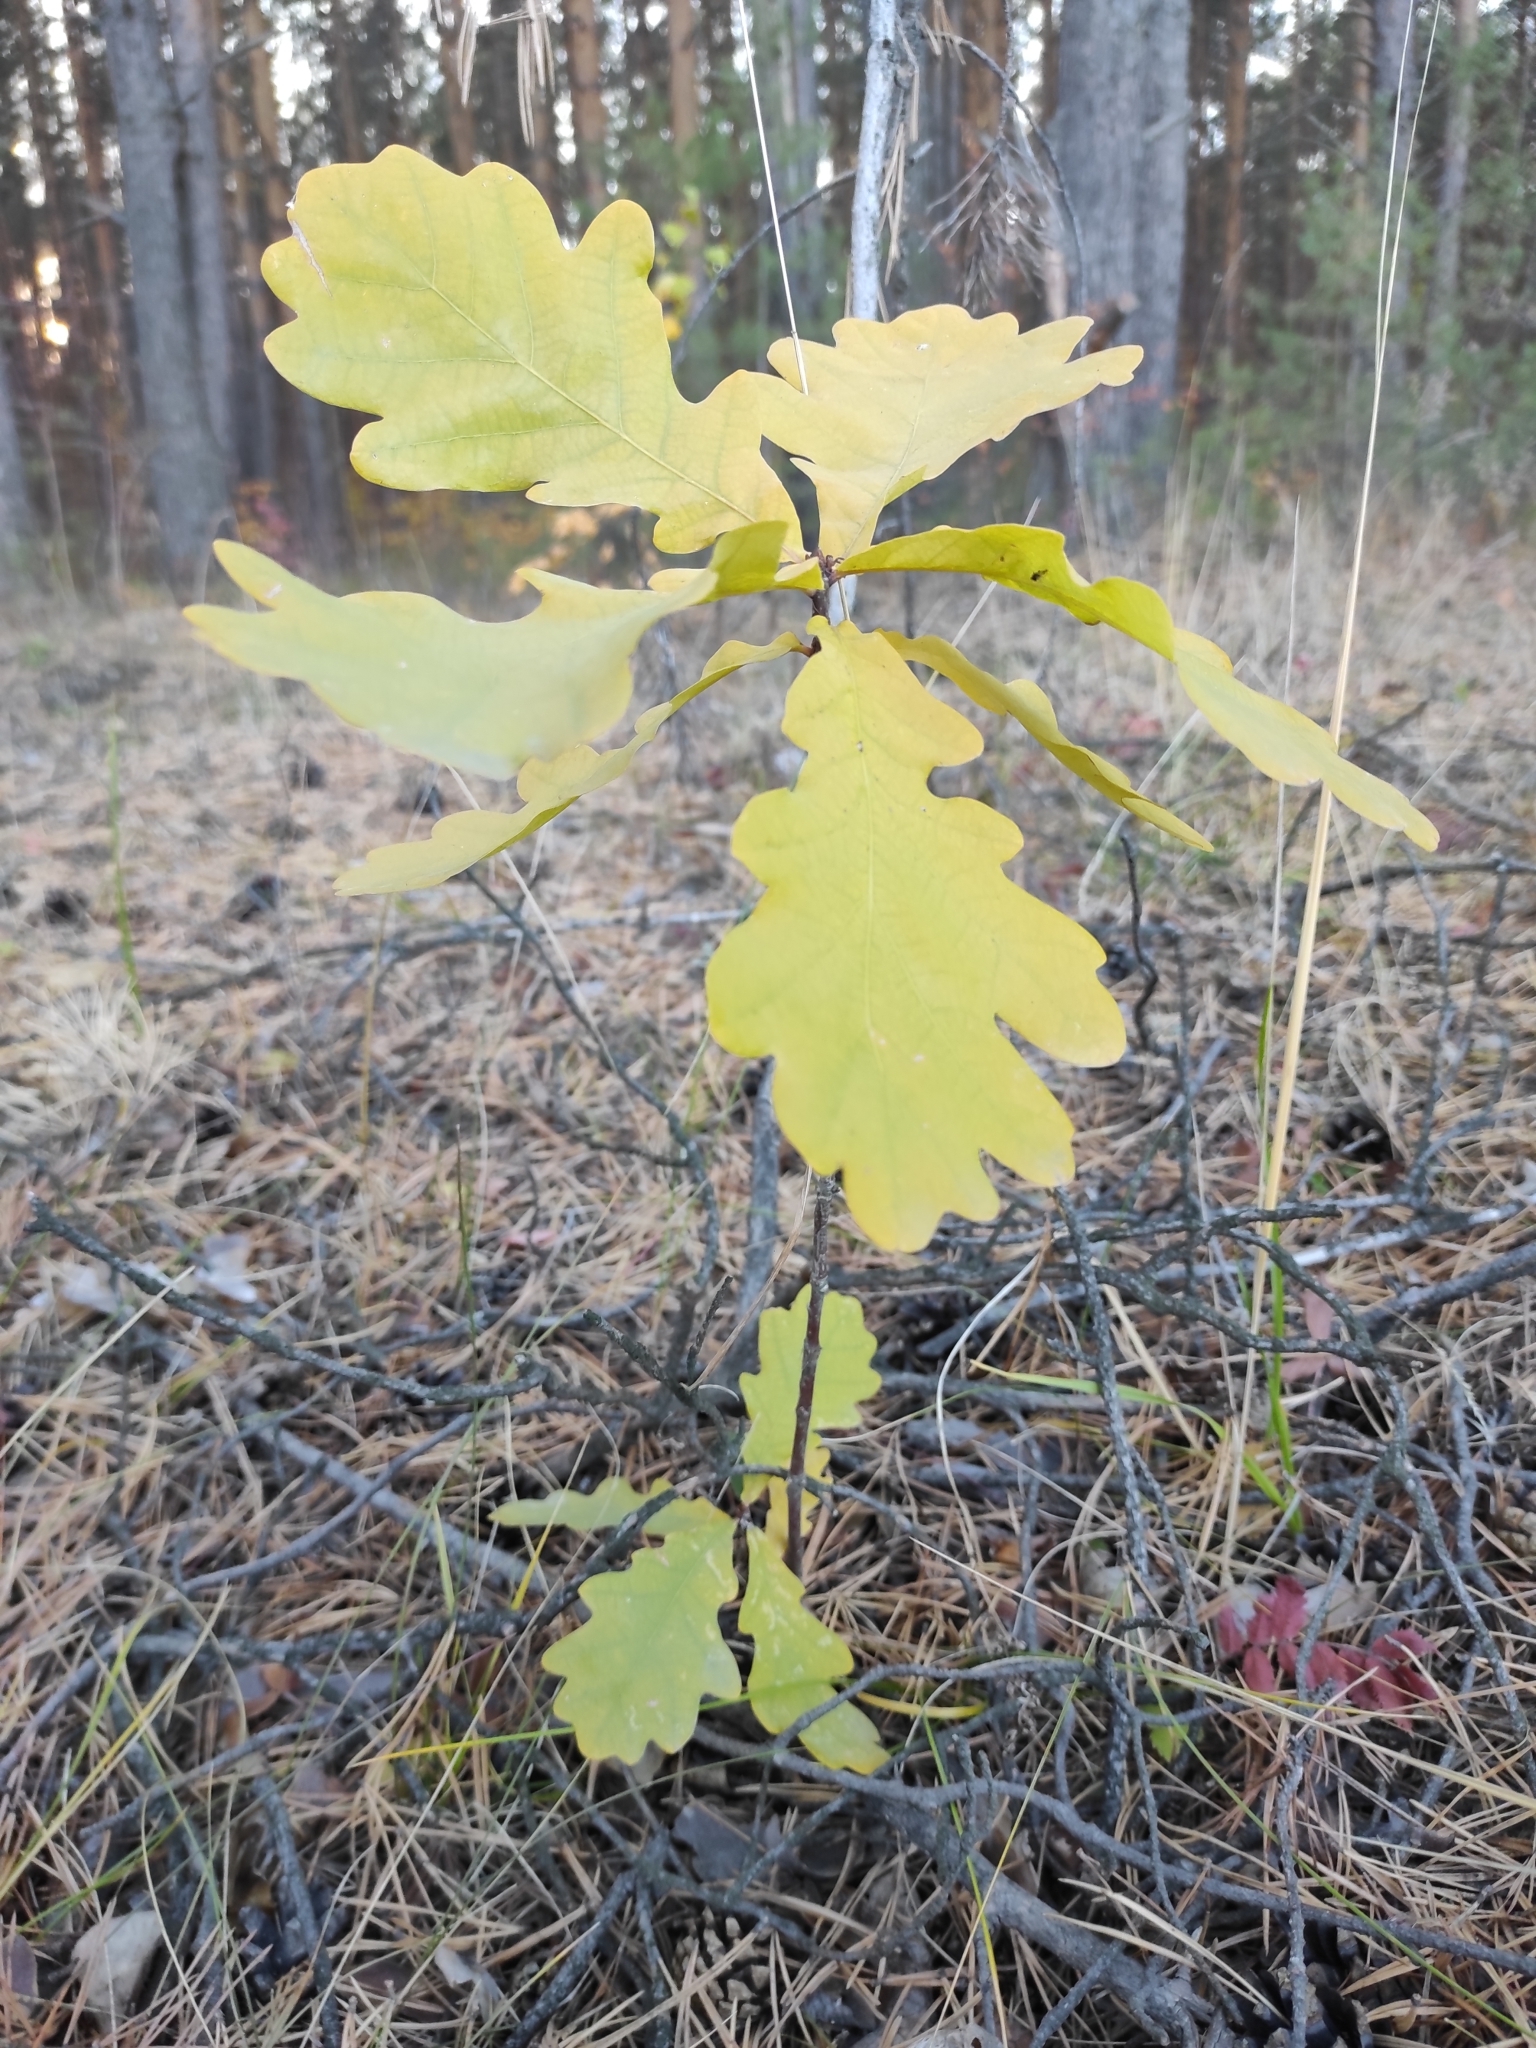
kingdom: Plantae
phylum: Tracheophyta
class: Magnoliopsida
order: Fagales
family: Fagaceae
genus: Quercus
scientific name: Quercus robur
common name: Pedunculate oak
